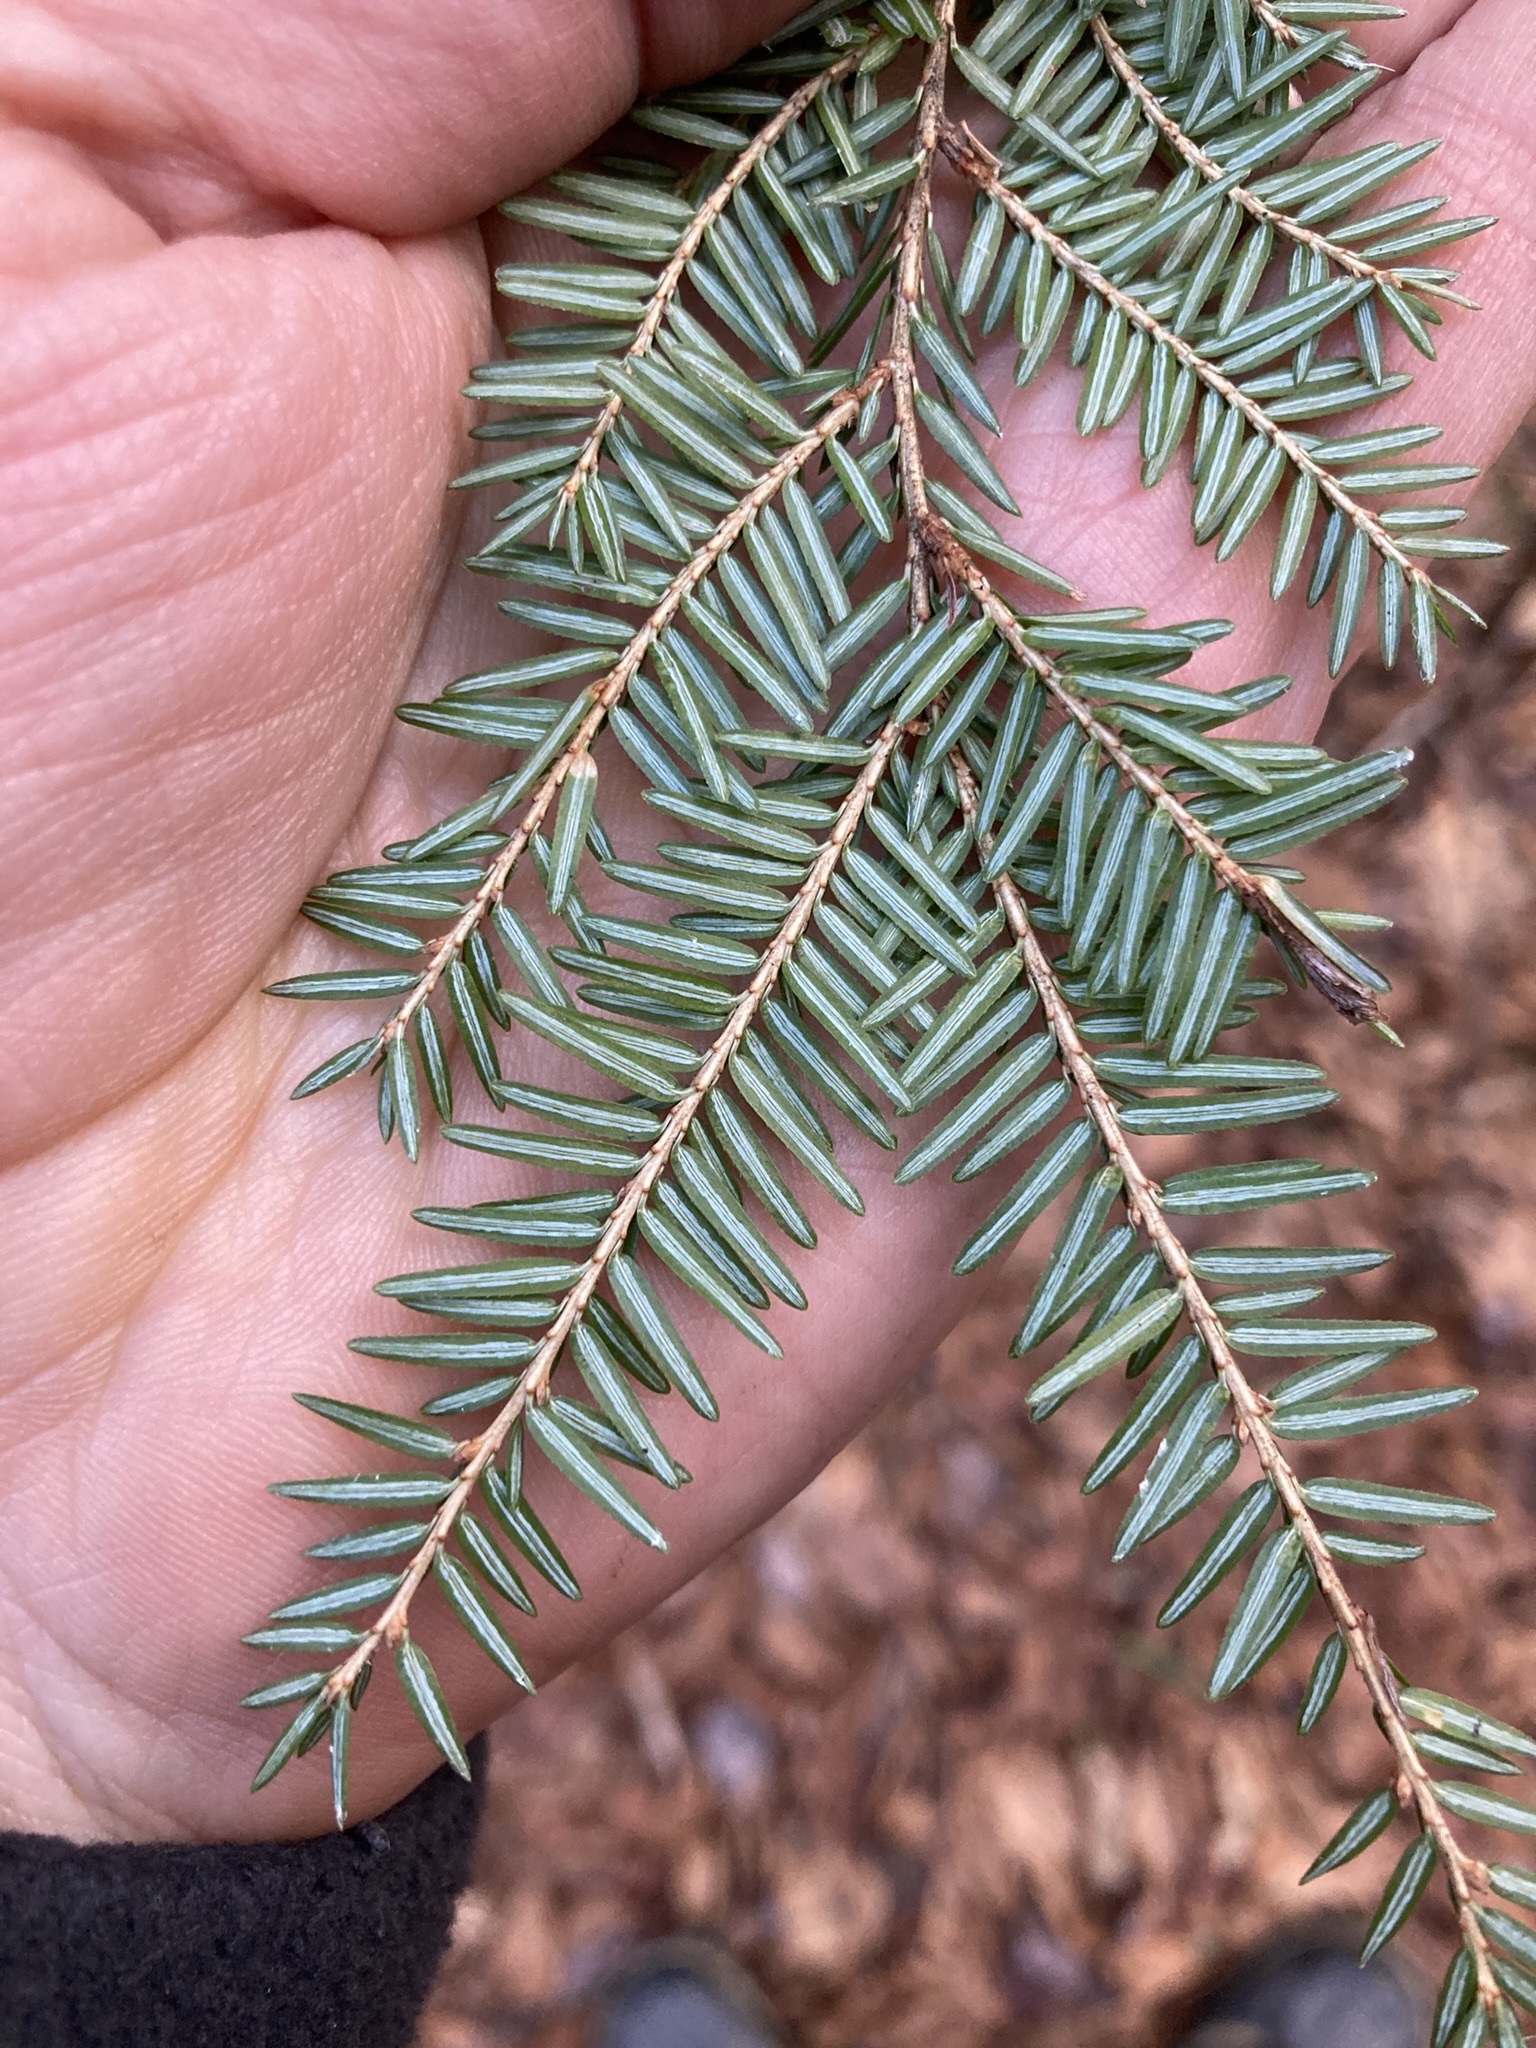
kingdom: Plantae
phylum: Tracheophyta
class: Pinopsida
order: Pinales
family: Pinaceae
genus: Tsuga
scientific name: Tsuga canadensis
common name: Eastern hemlock
